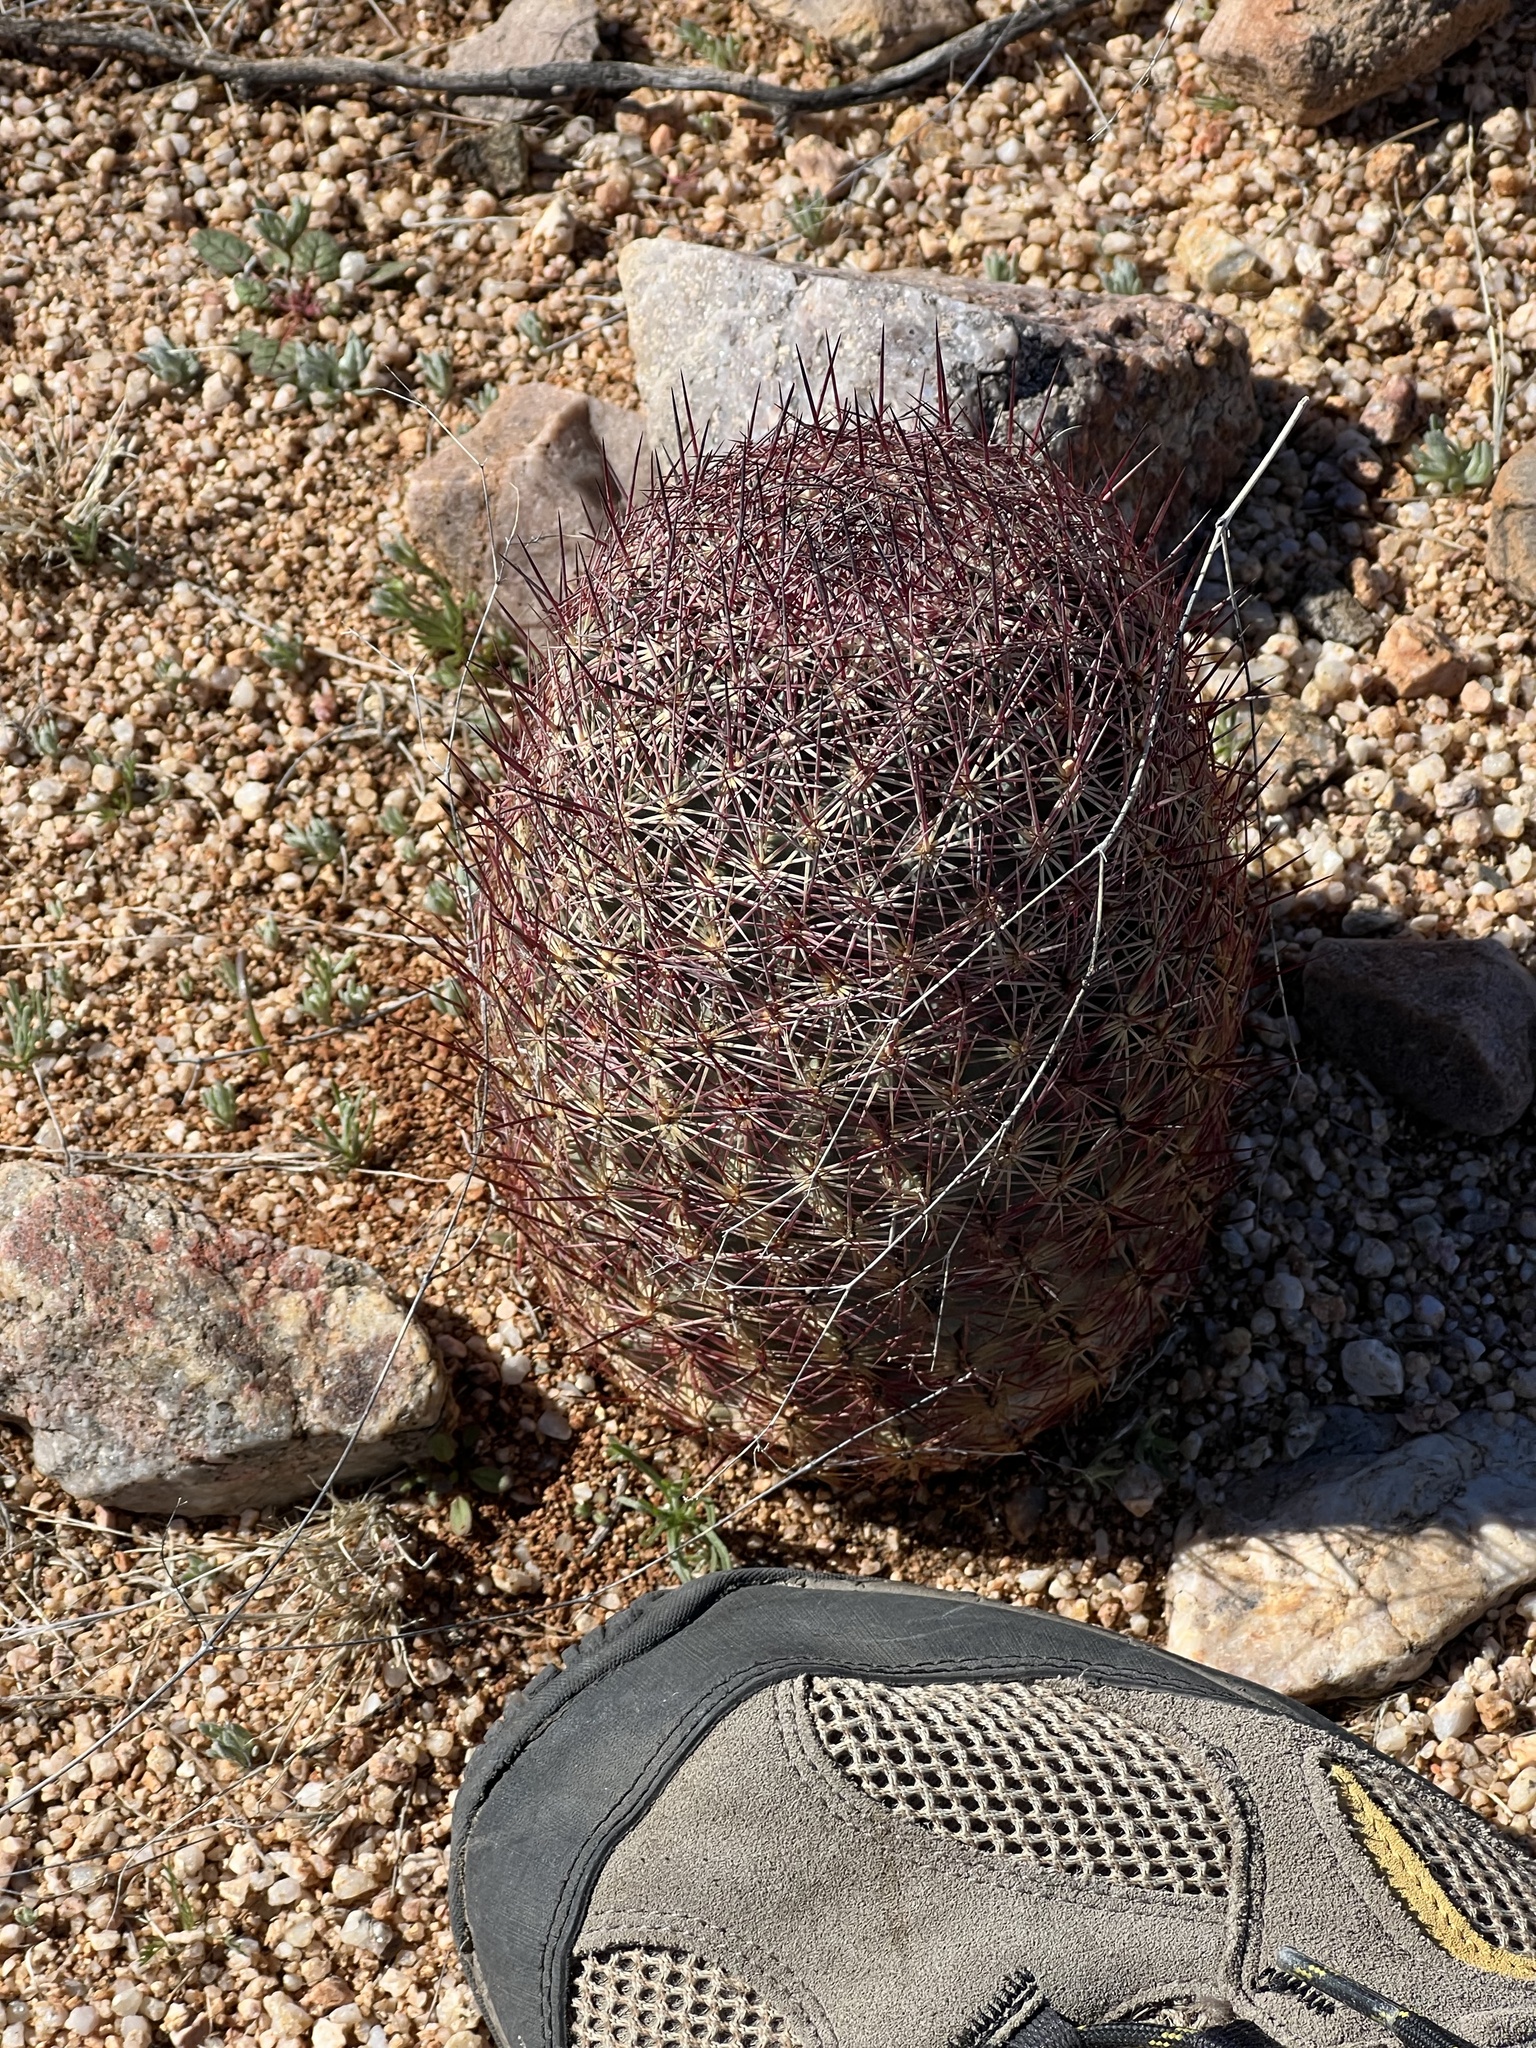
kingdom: Plantae
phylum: Tracheophyta
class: Magnoliopsida
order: Caryophyllales
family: Cactaceae
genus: Sclerocactus
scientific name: Sclerocactus johnsonii
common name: Eight-spine fishhook cactus
